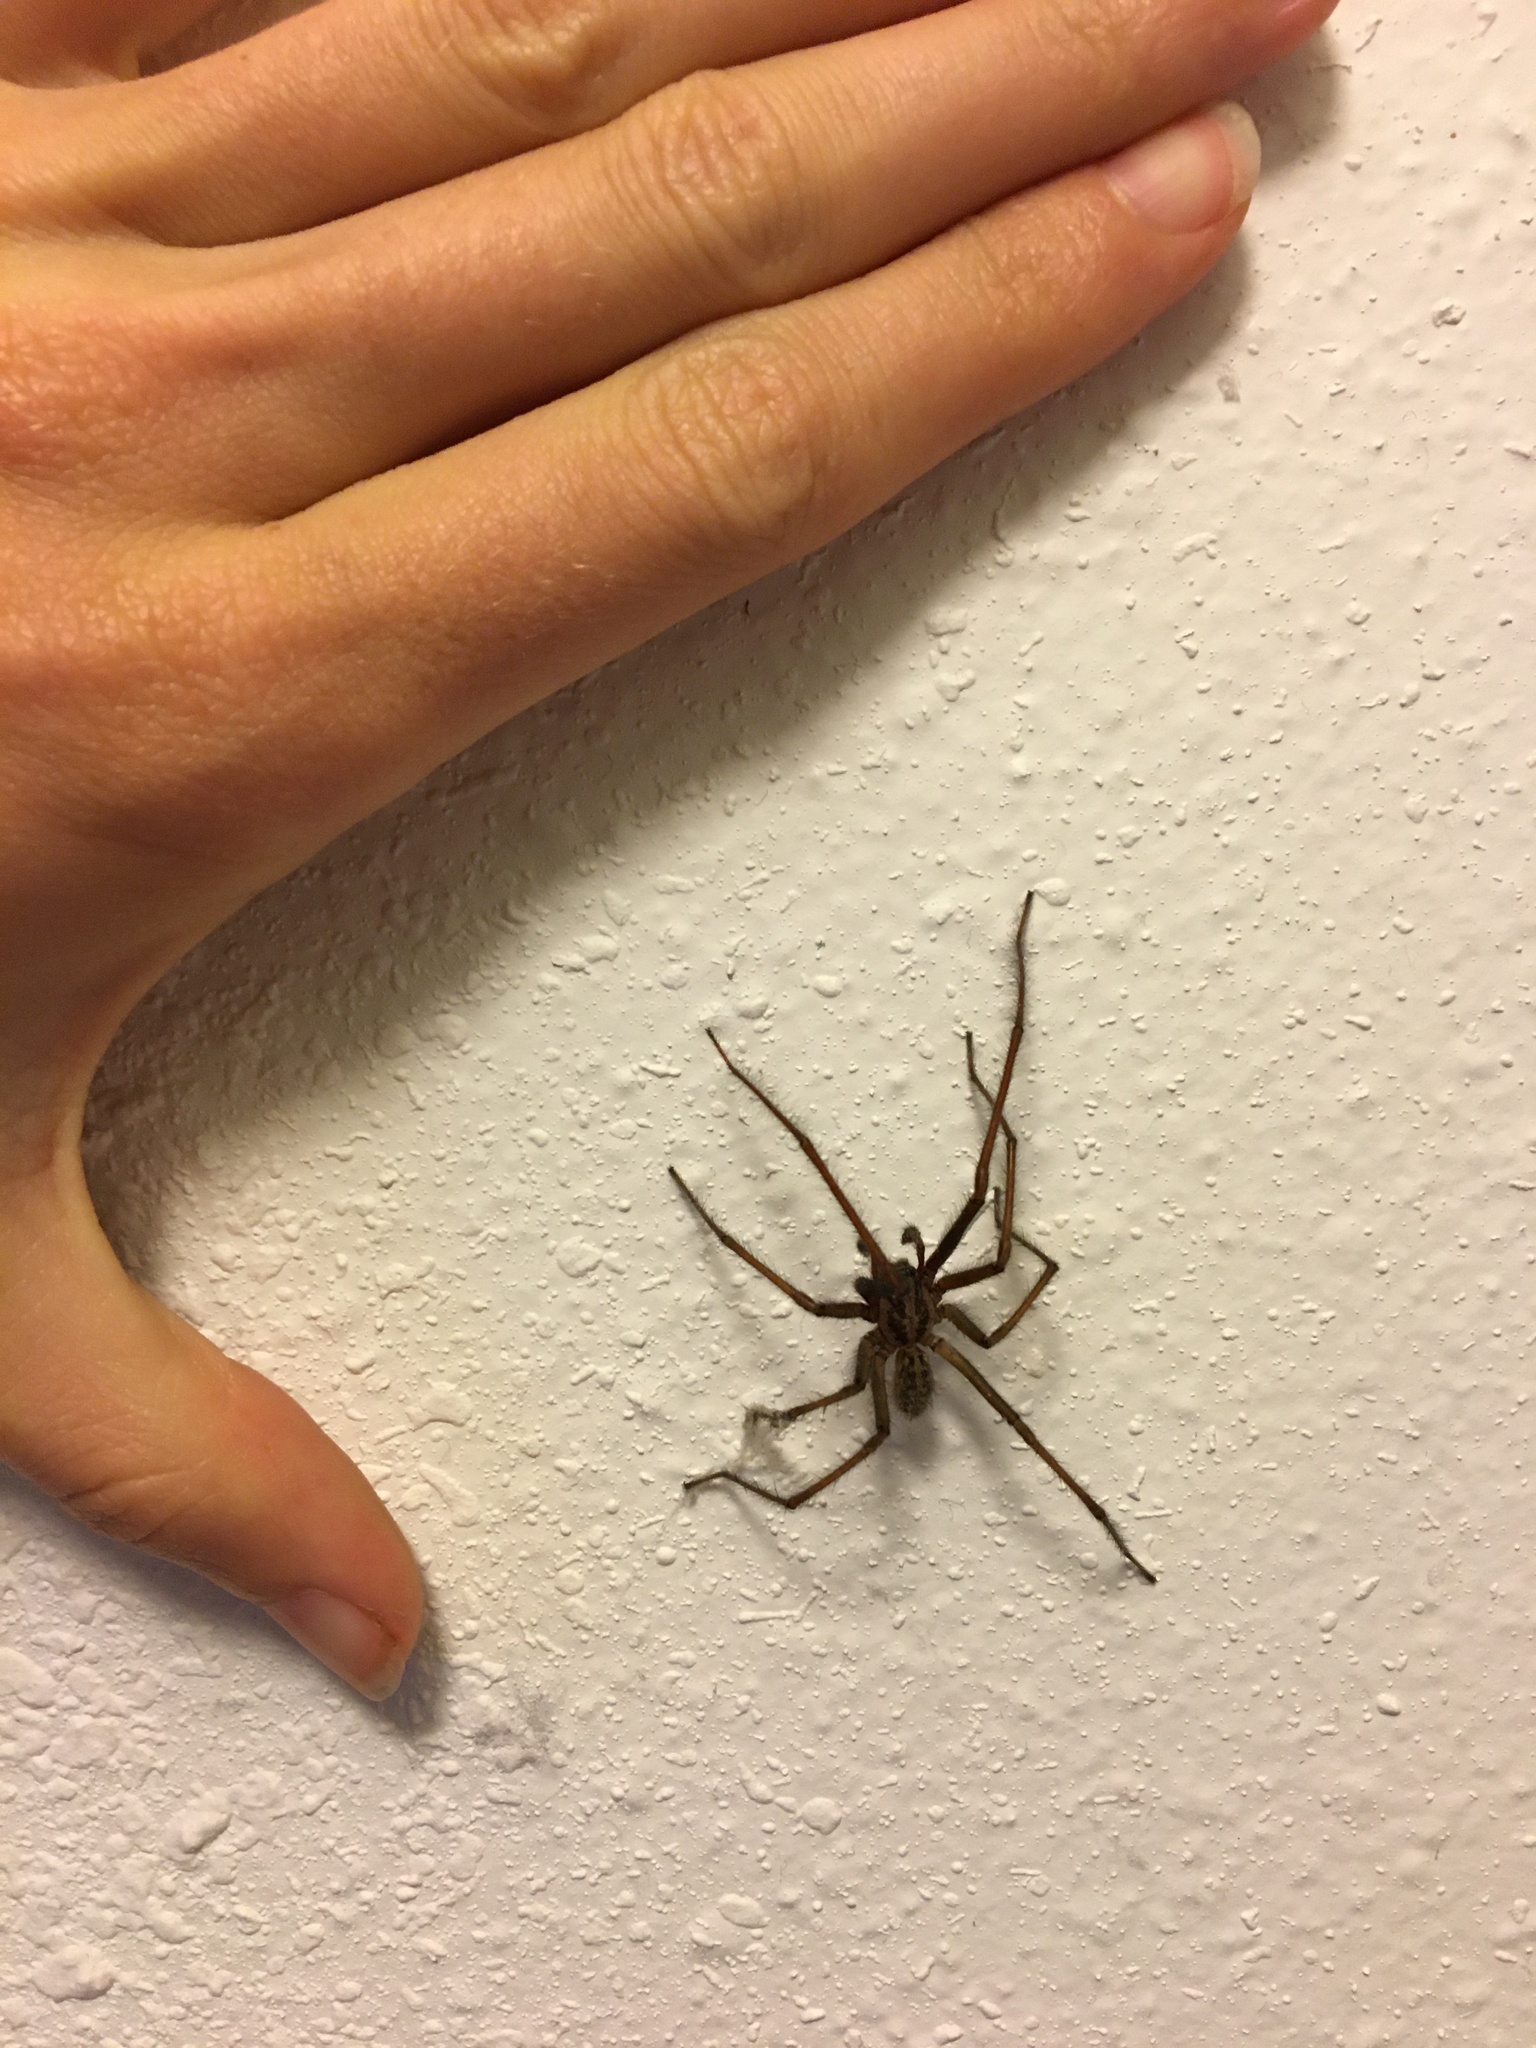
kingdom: Animalia
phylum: Arthropoda
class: Arachnida
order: Araneae
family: Agelenidae
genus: Eratigena
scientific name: Eratigena duellica
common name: Giant house spider
